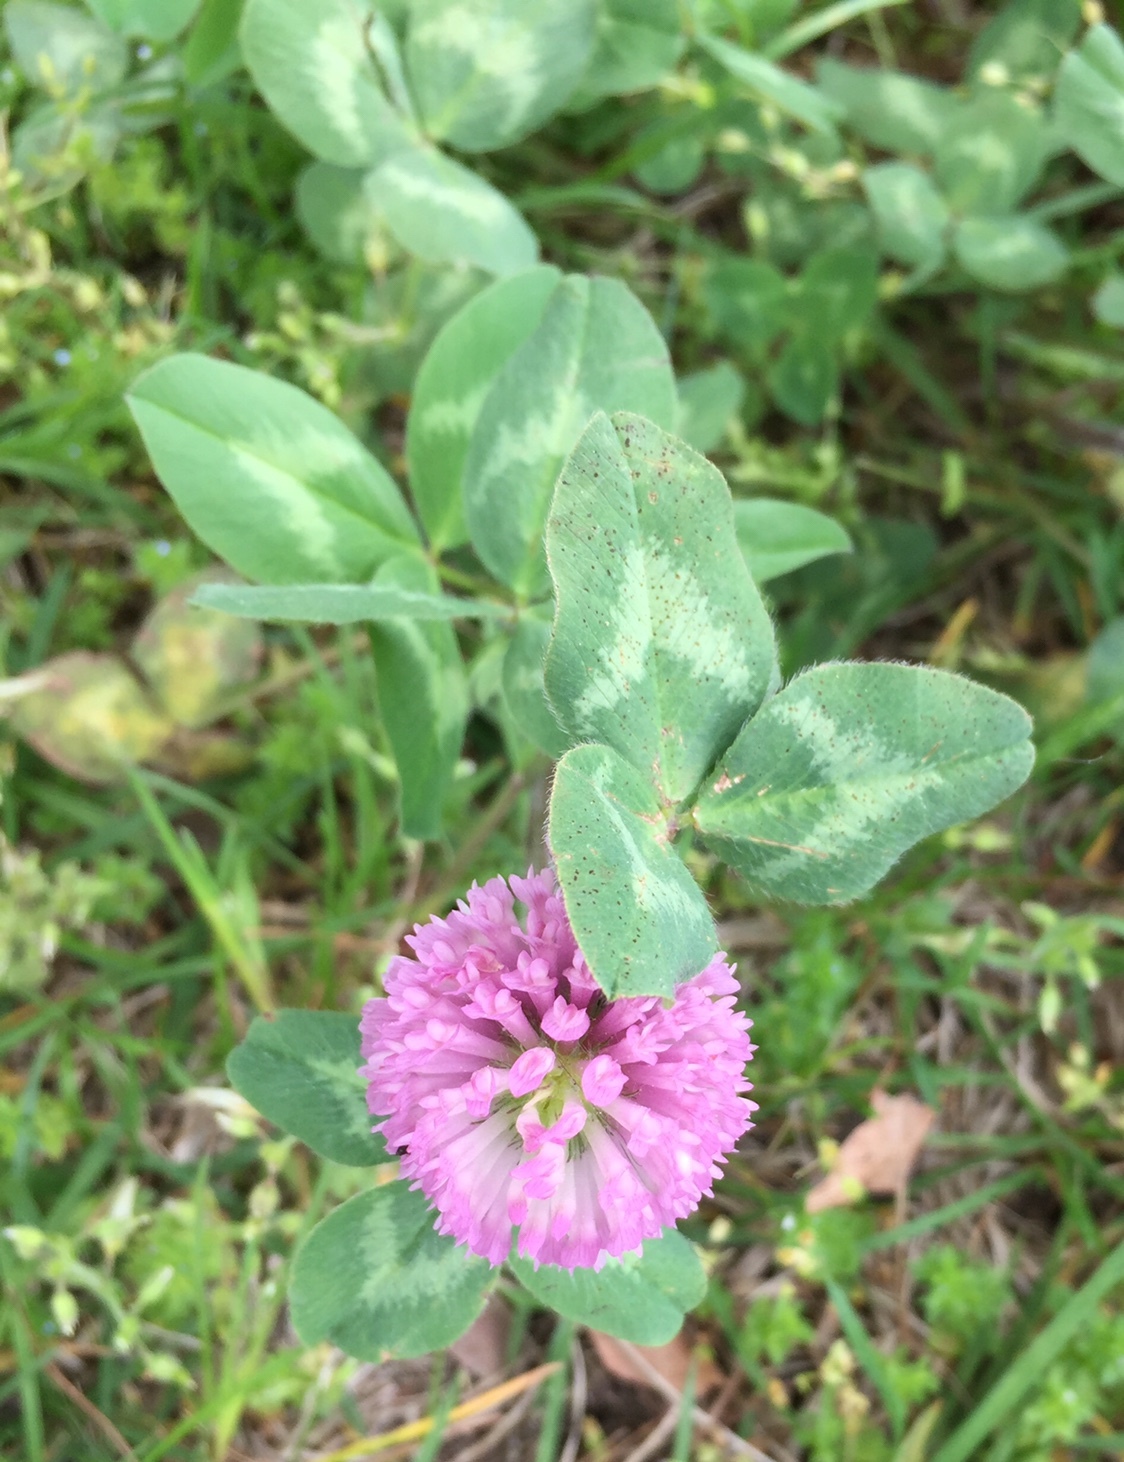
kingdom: Plantae
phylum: Tracheophyta
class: Magnoliopsida
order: Fabales
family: Fabaceae
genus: Trifolium
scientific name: Trifolium pratense
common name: Red clover
